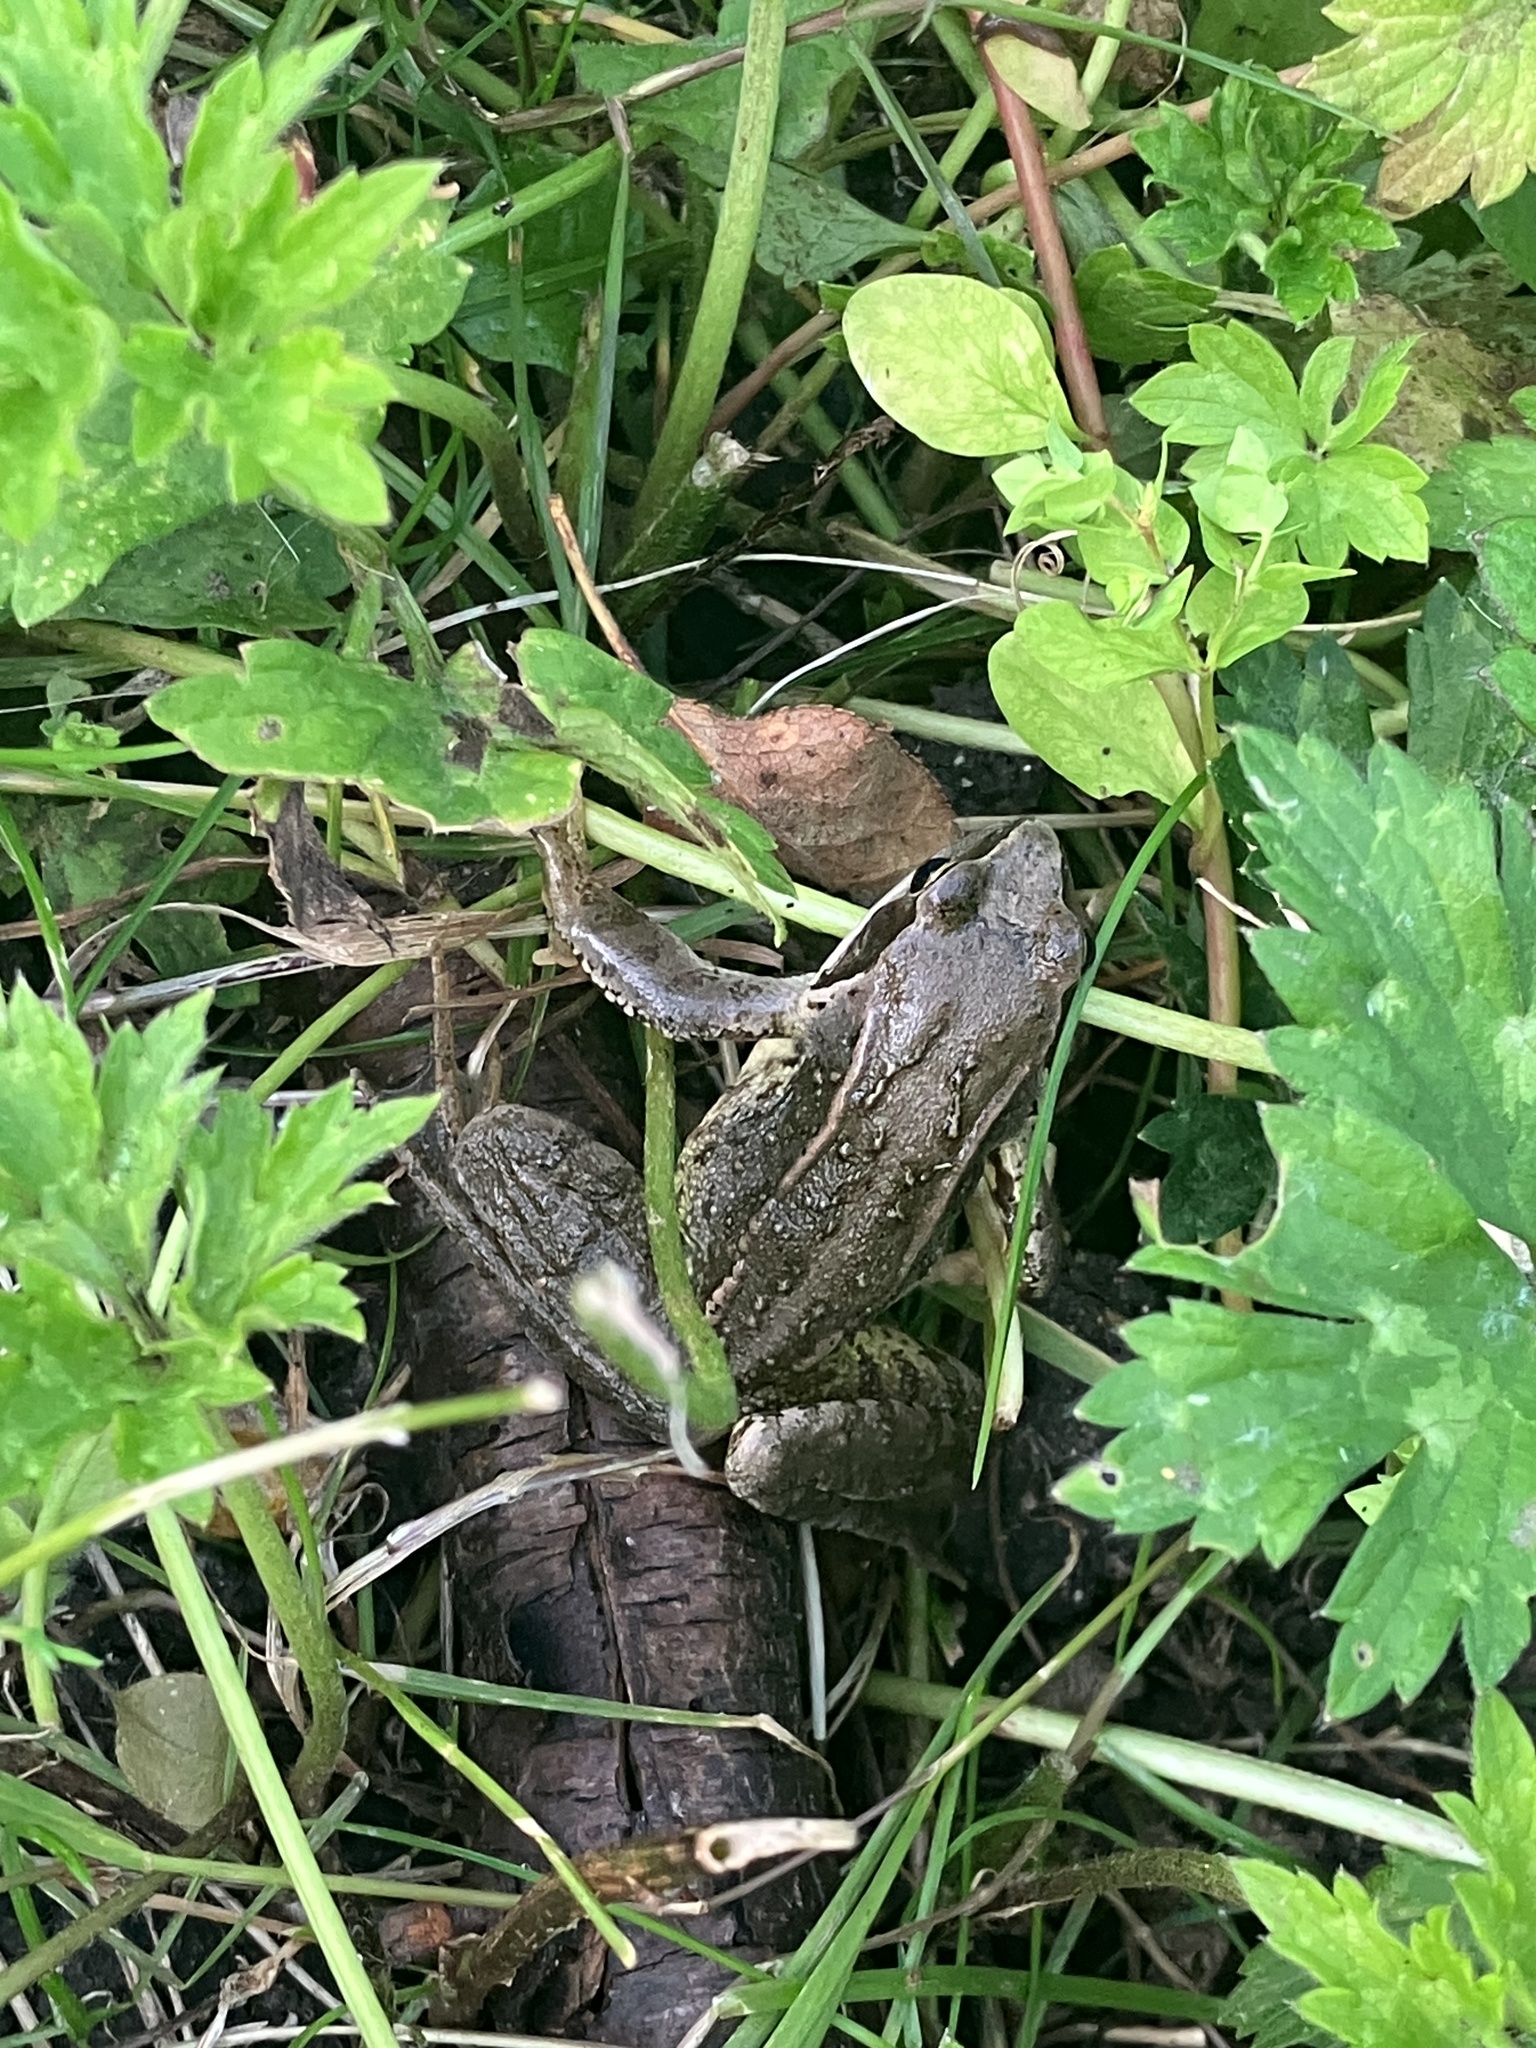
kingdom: Animalia
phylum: Chordata
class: Amphibia
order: Anura
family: Ranidae
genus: Rana
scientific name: Rana temporaria
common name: Common frog
